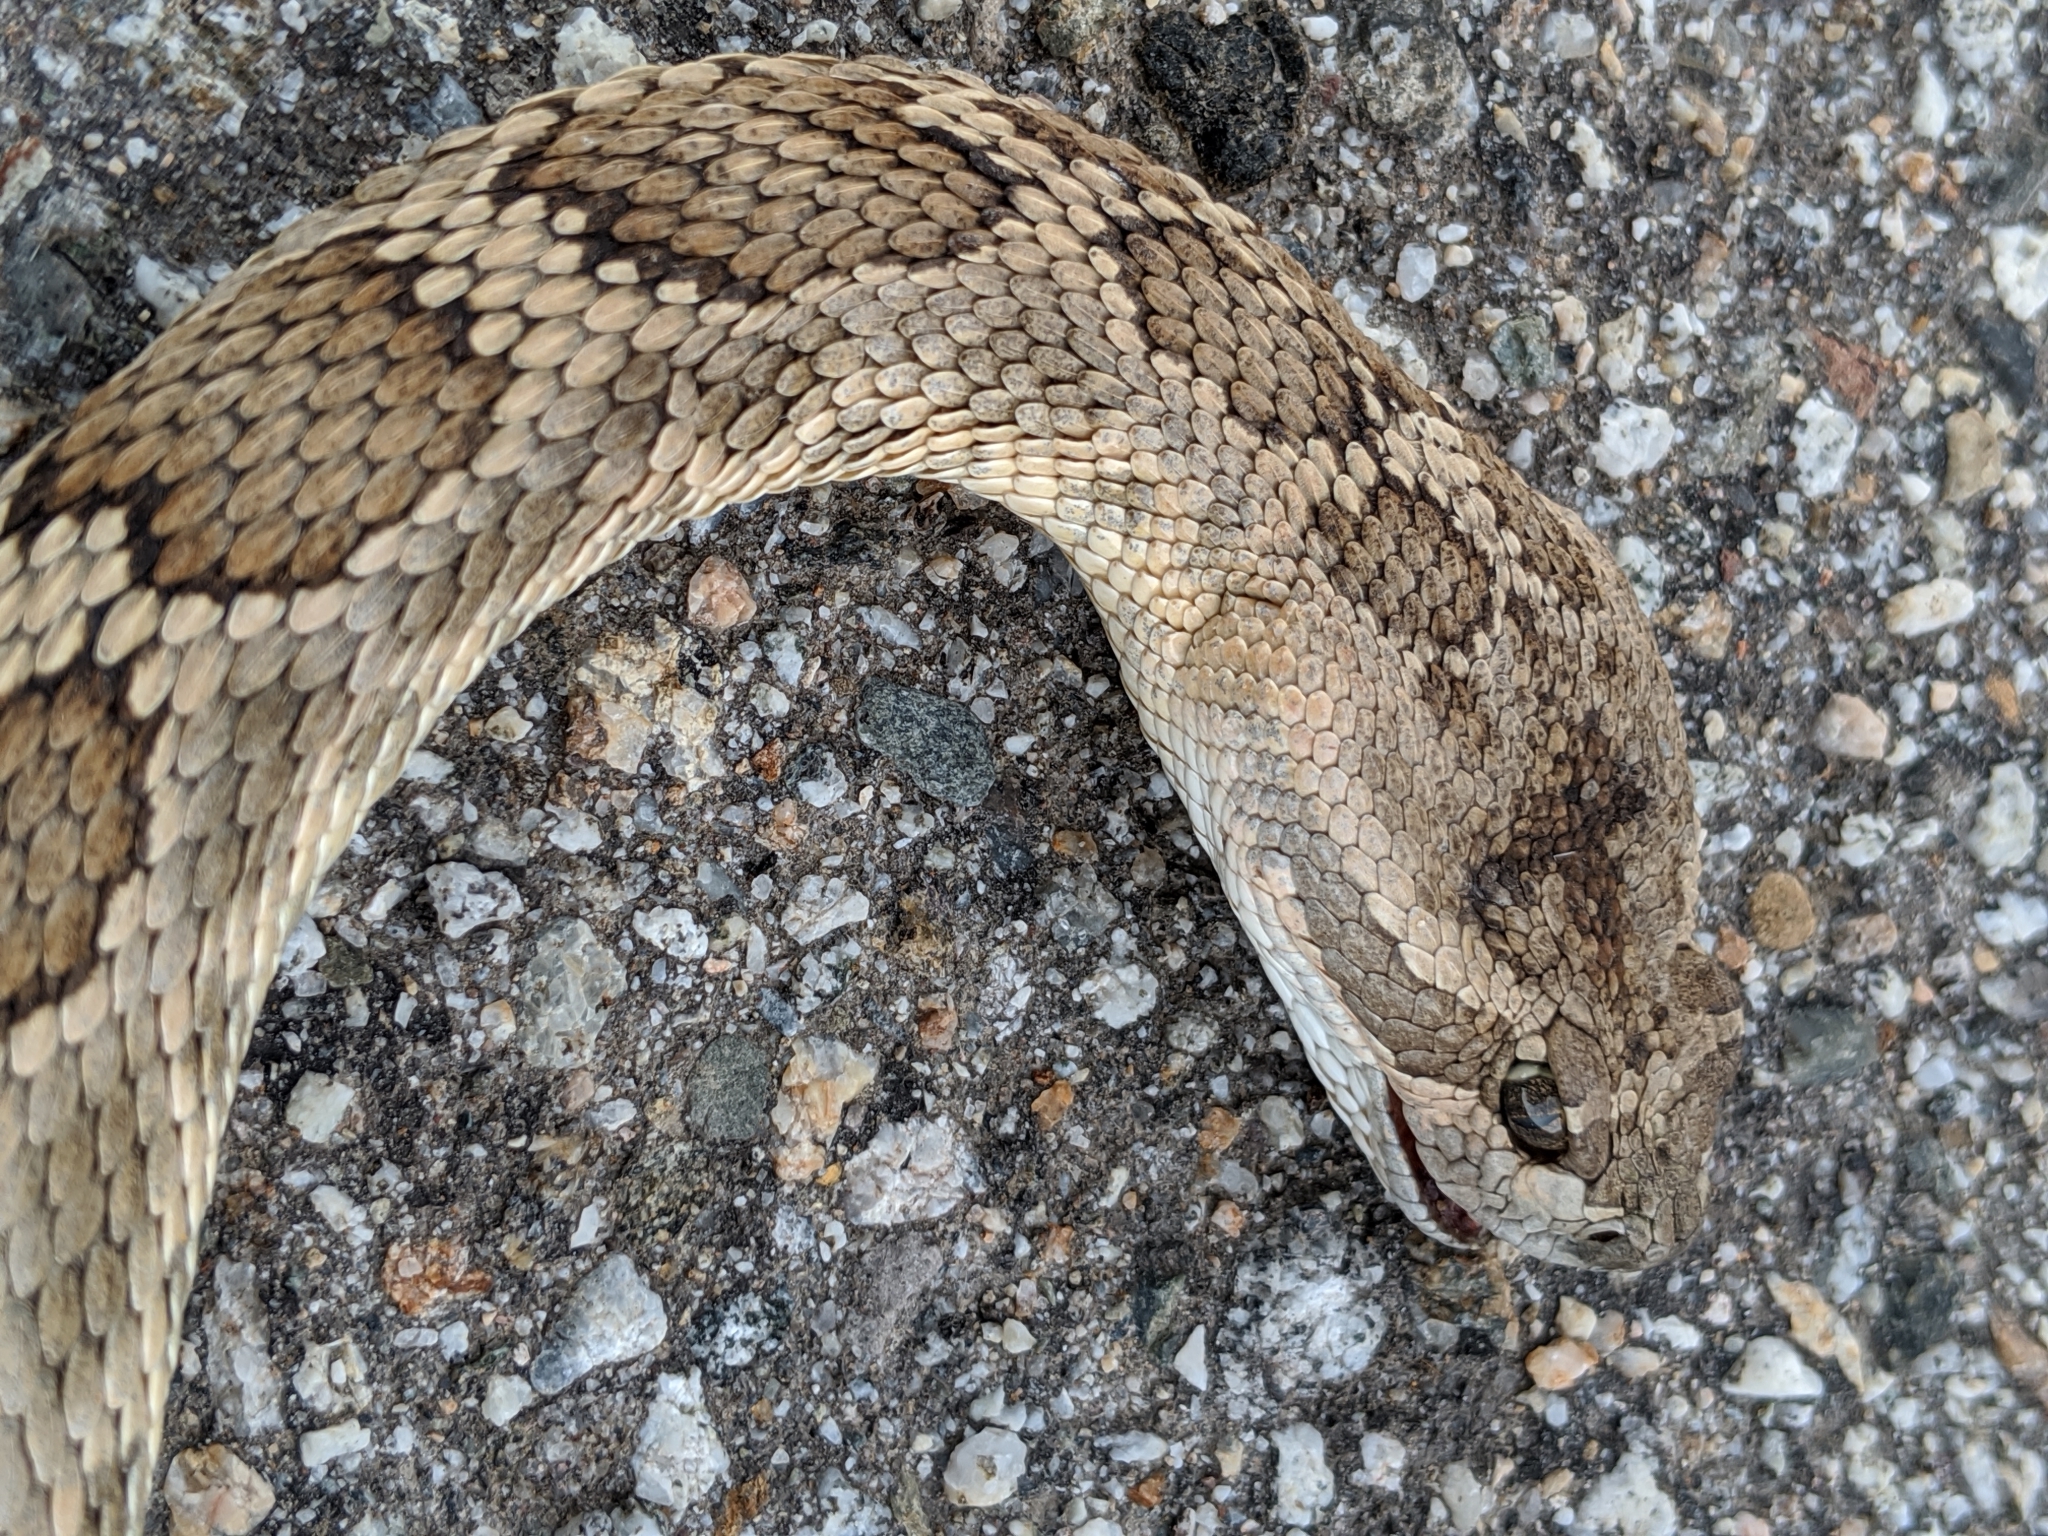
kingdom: Animalia
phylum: Chordata
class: Squamata
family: Viperidae
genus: Crotalus
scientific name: Crotalus oreganus
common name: Abyssus
